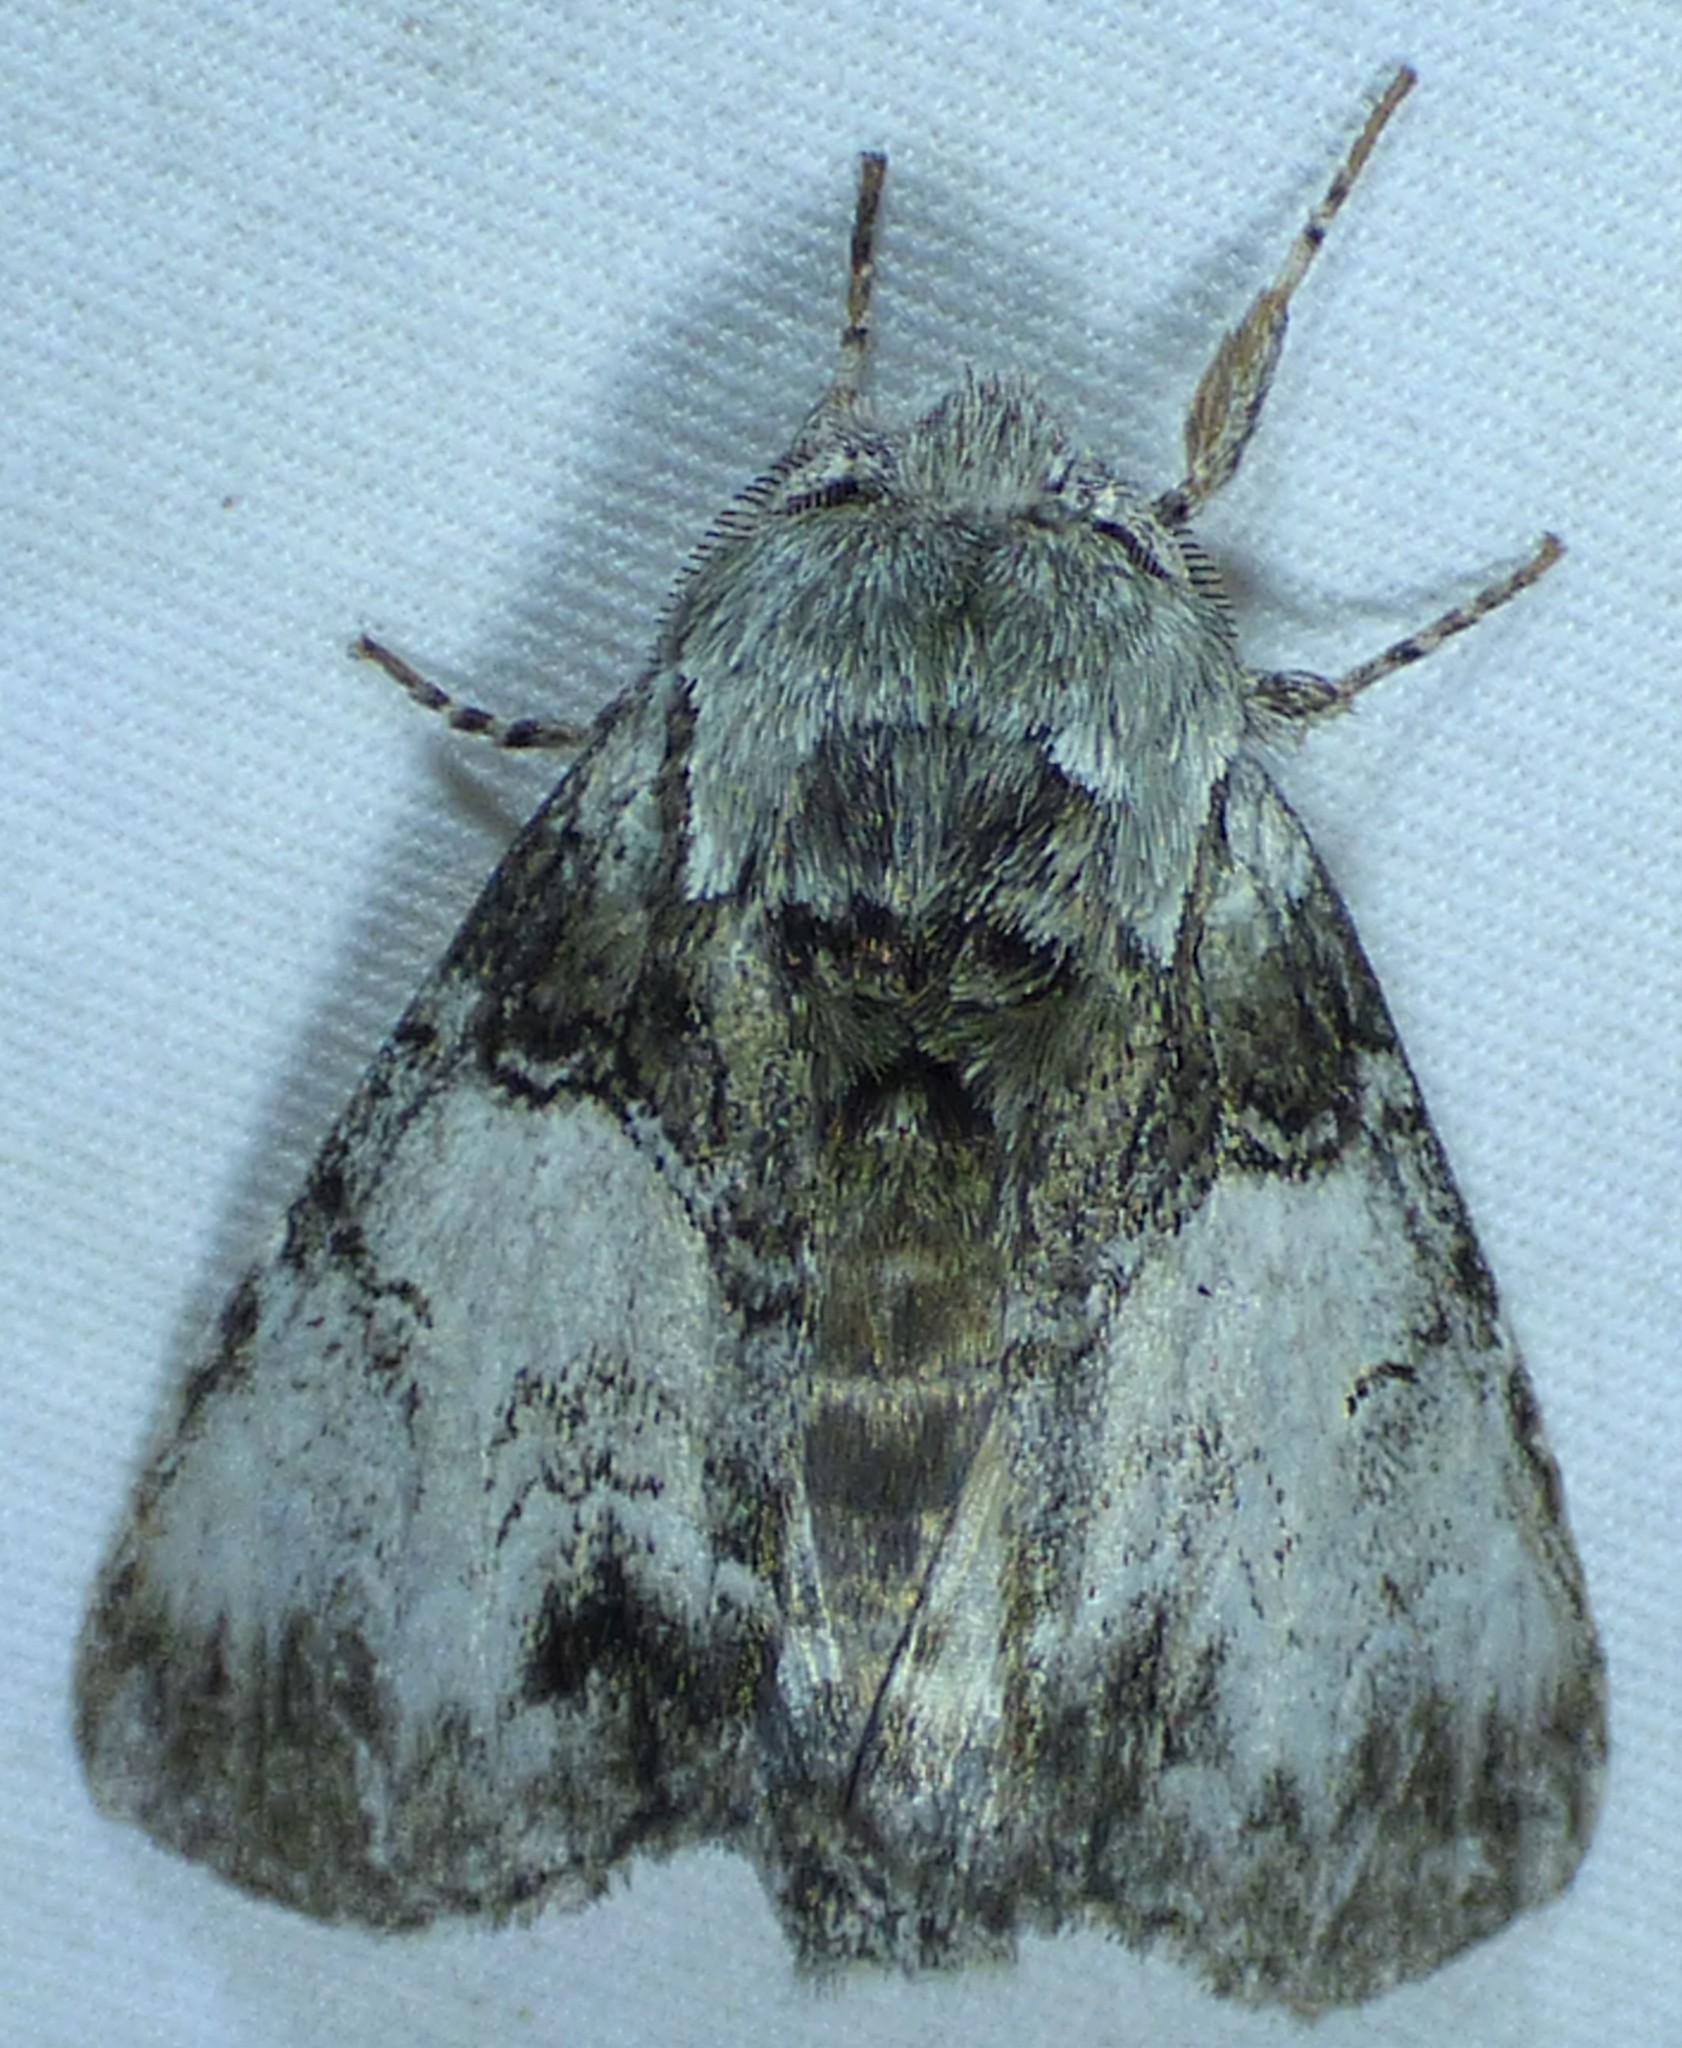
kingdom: Animalia
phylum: Arthropoda
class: Insecta
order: Lepidoptera
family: Notodontidae
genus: Macrurocampa
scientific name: Macrurocampa marthesia
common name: Mottled prominent
